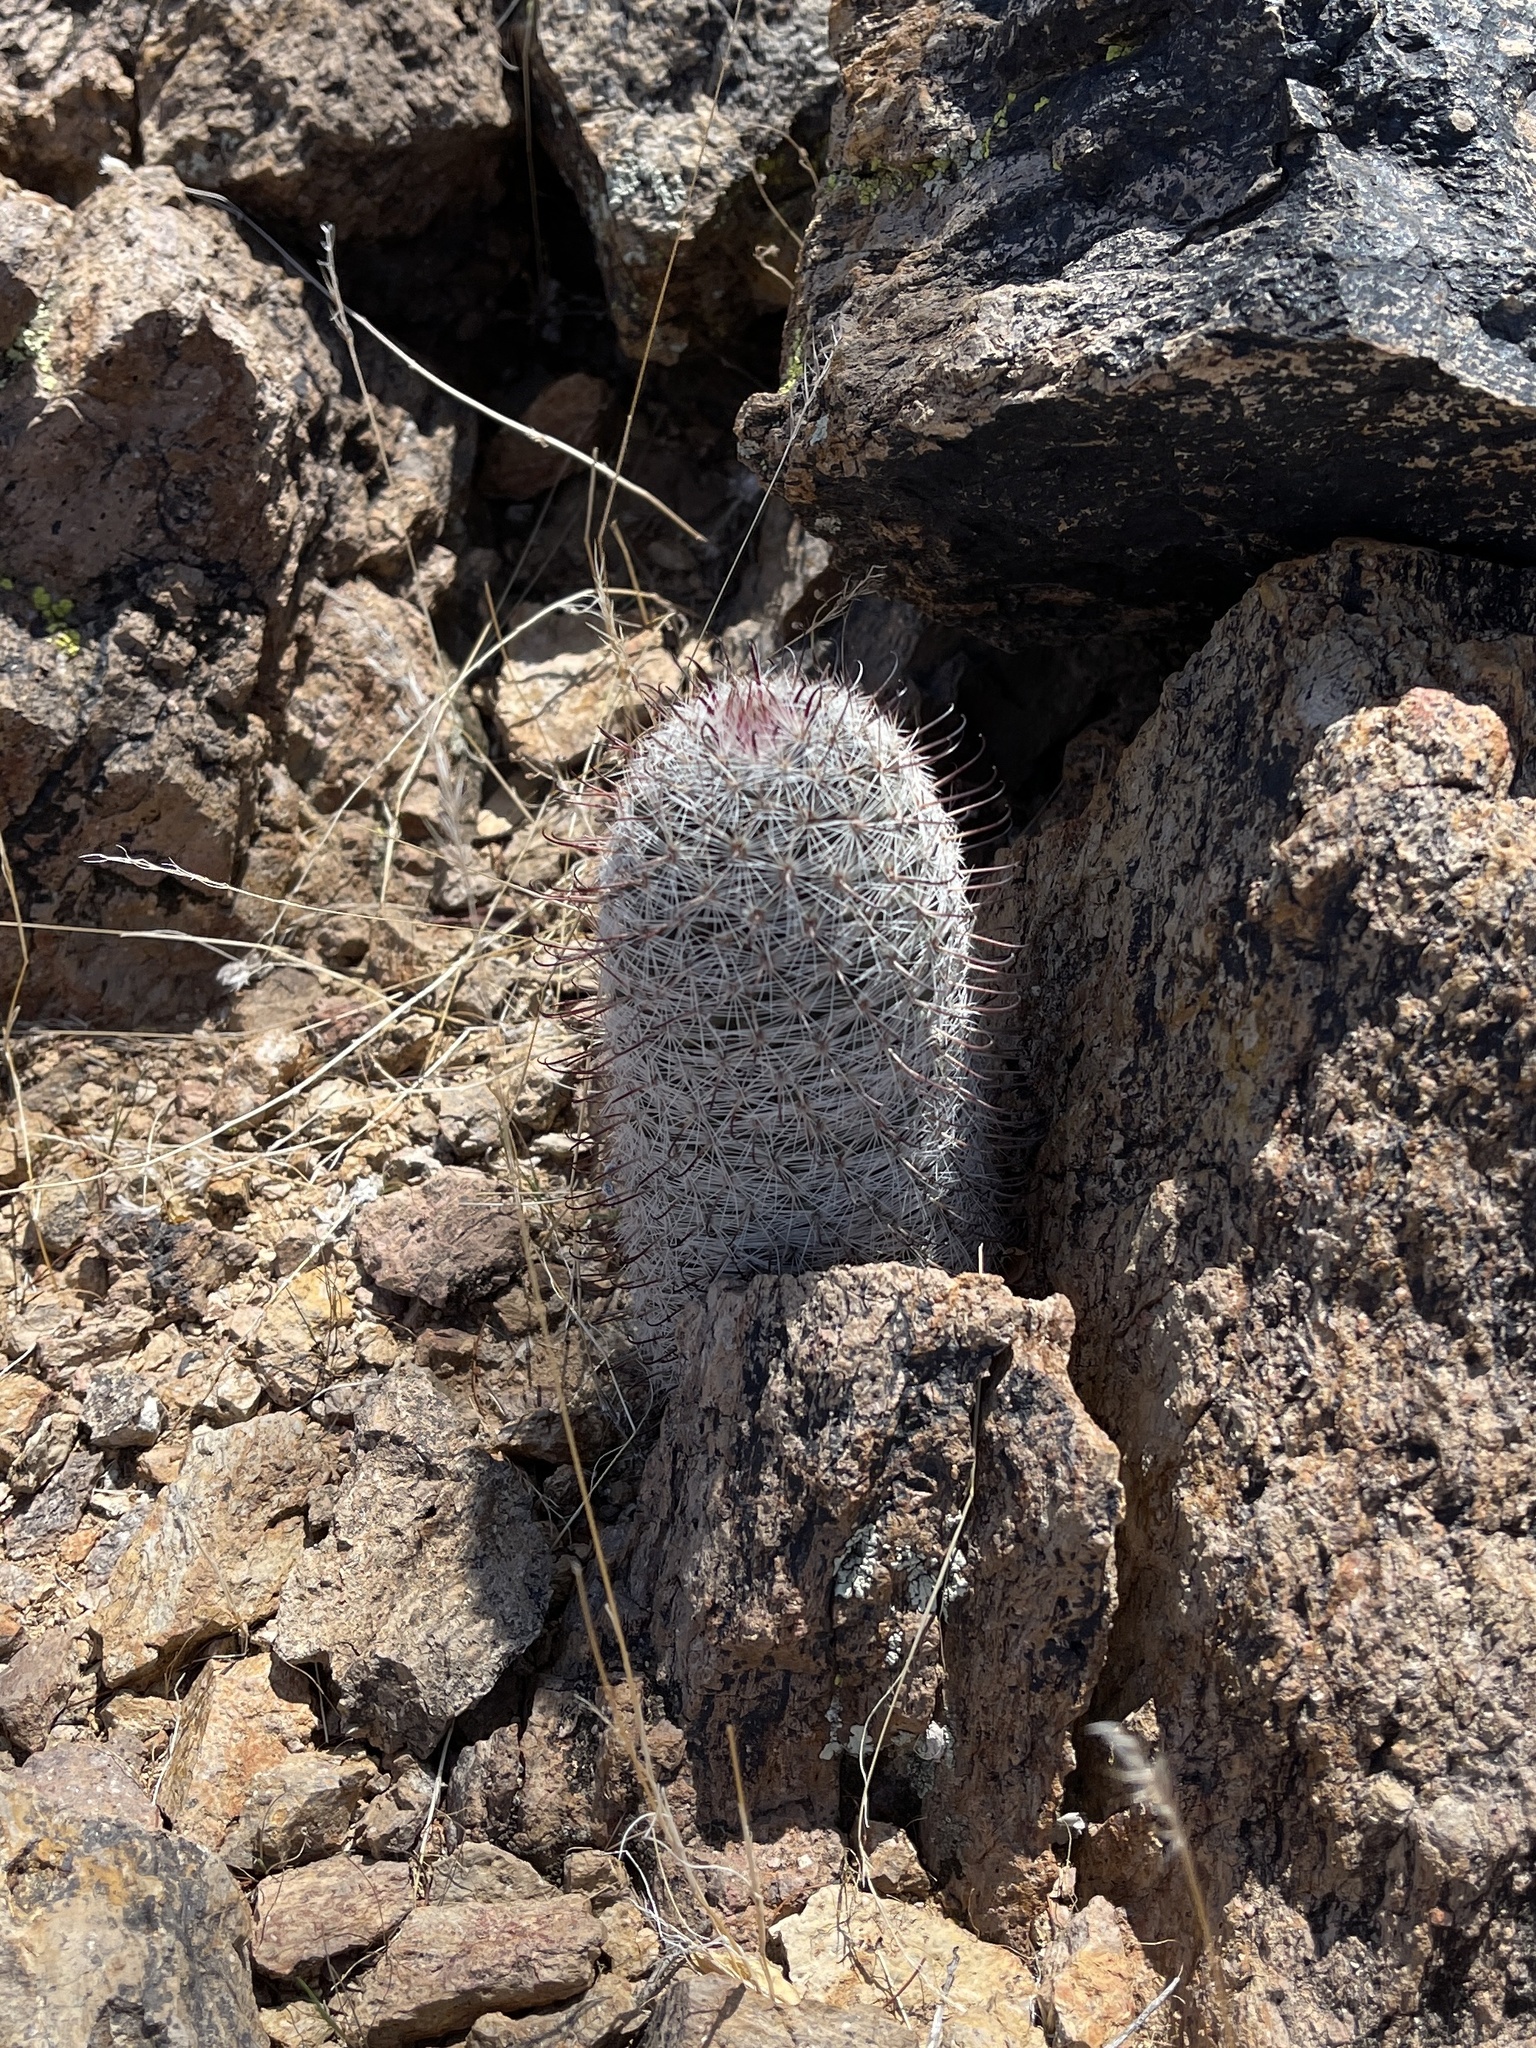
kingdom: Plantae
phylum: Tracheophyta
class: Magnoliopsida
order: Caryophyllales
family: Cactaceae
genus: Cochemiea
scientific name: Cochemiea grahamii
